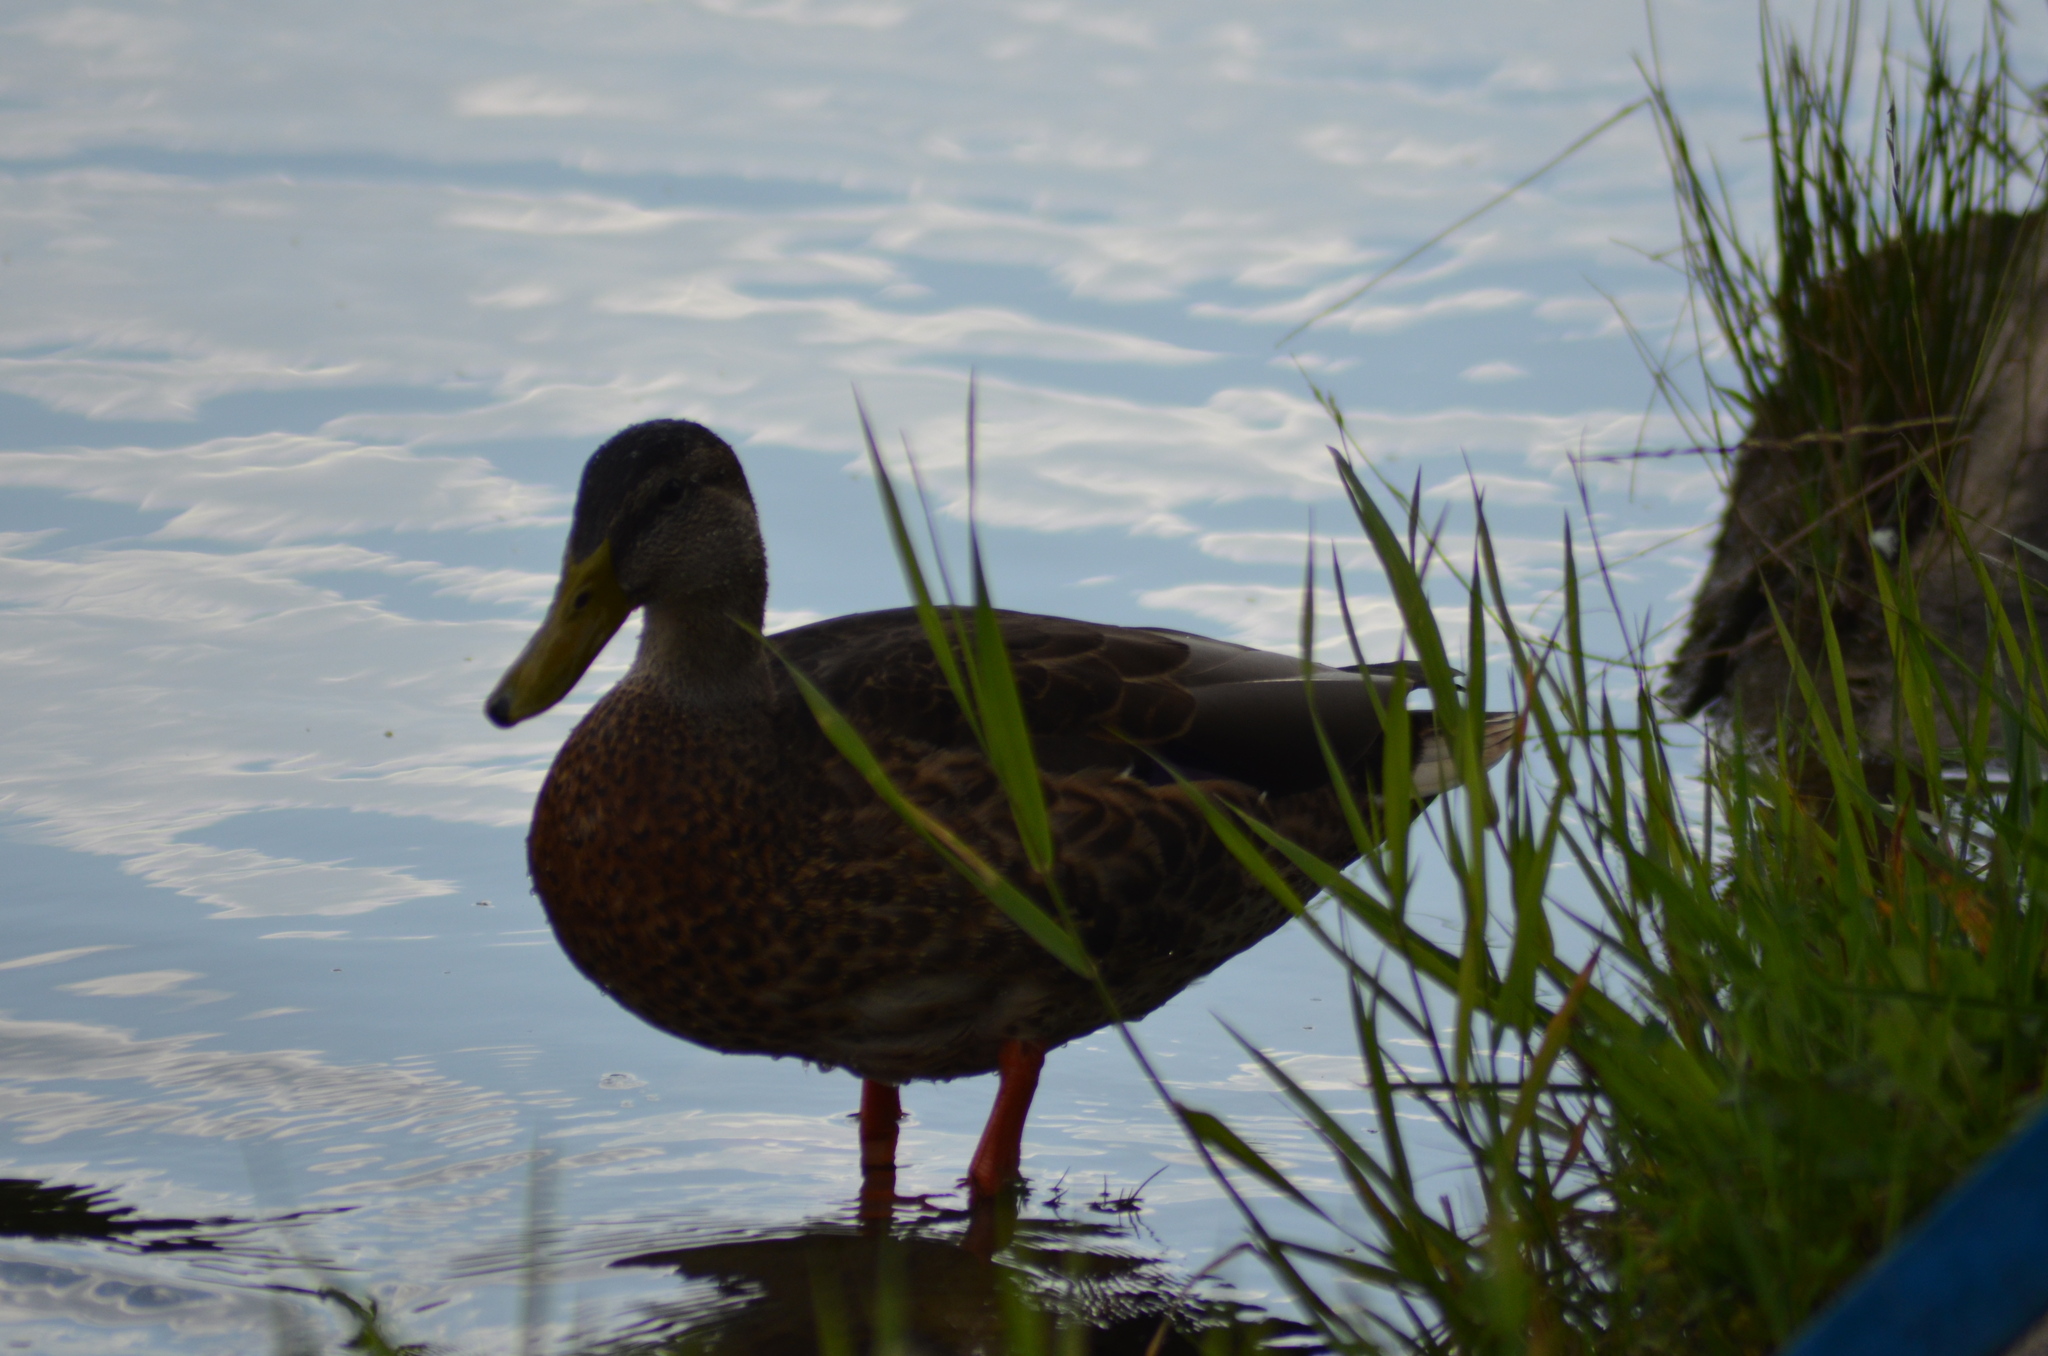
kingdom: Animalia
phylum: Chordata
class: Aves
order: Anseriformes
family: Anatidae
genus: Anas
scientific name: Anas platyrhynchos
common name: Mallard
